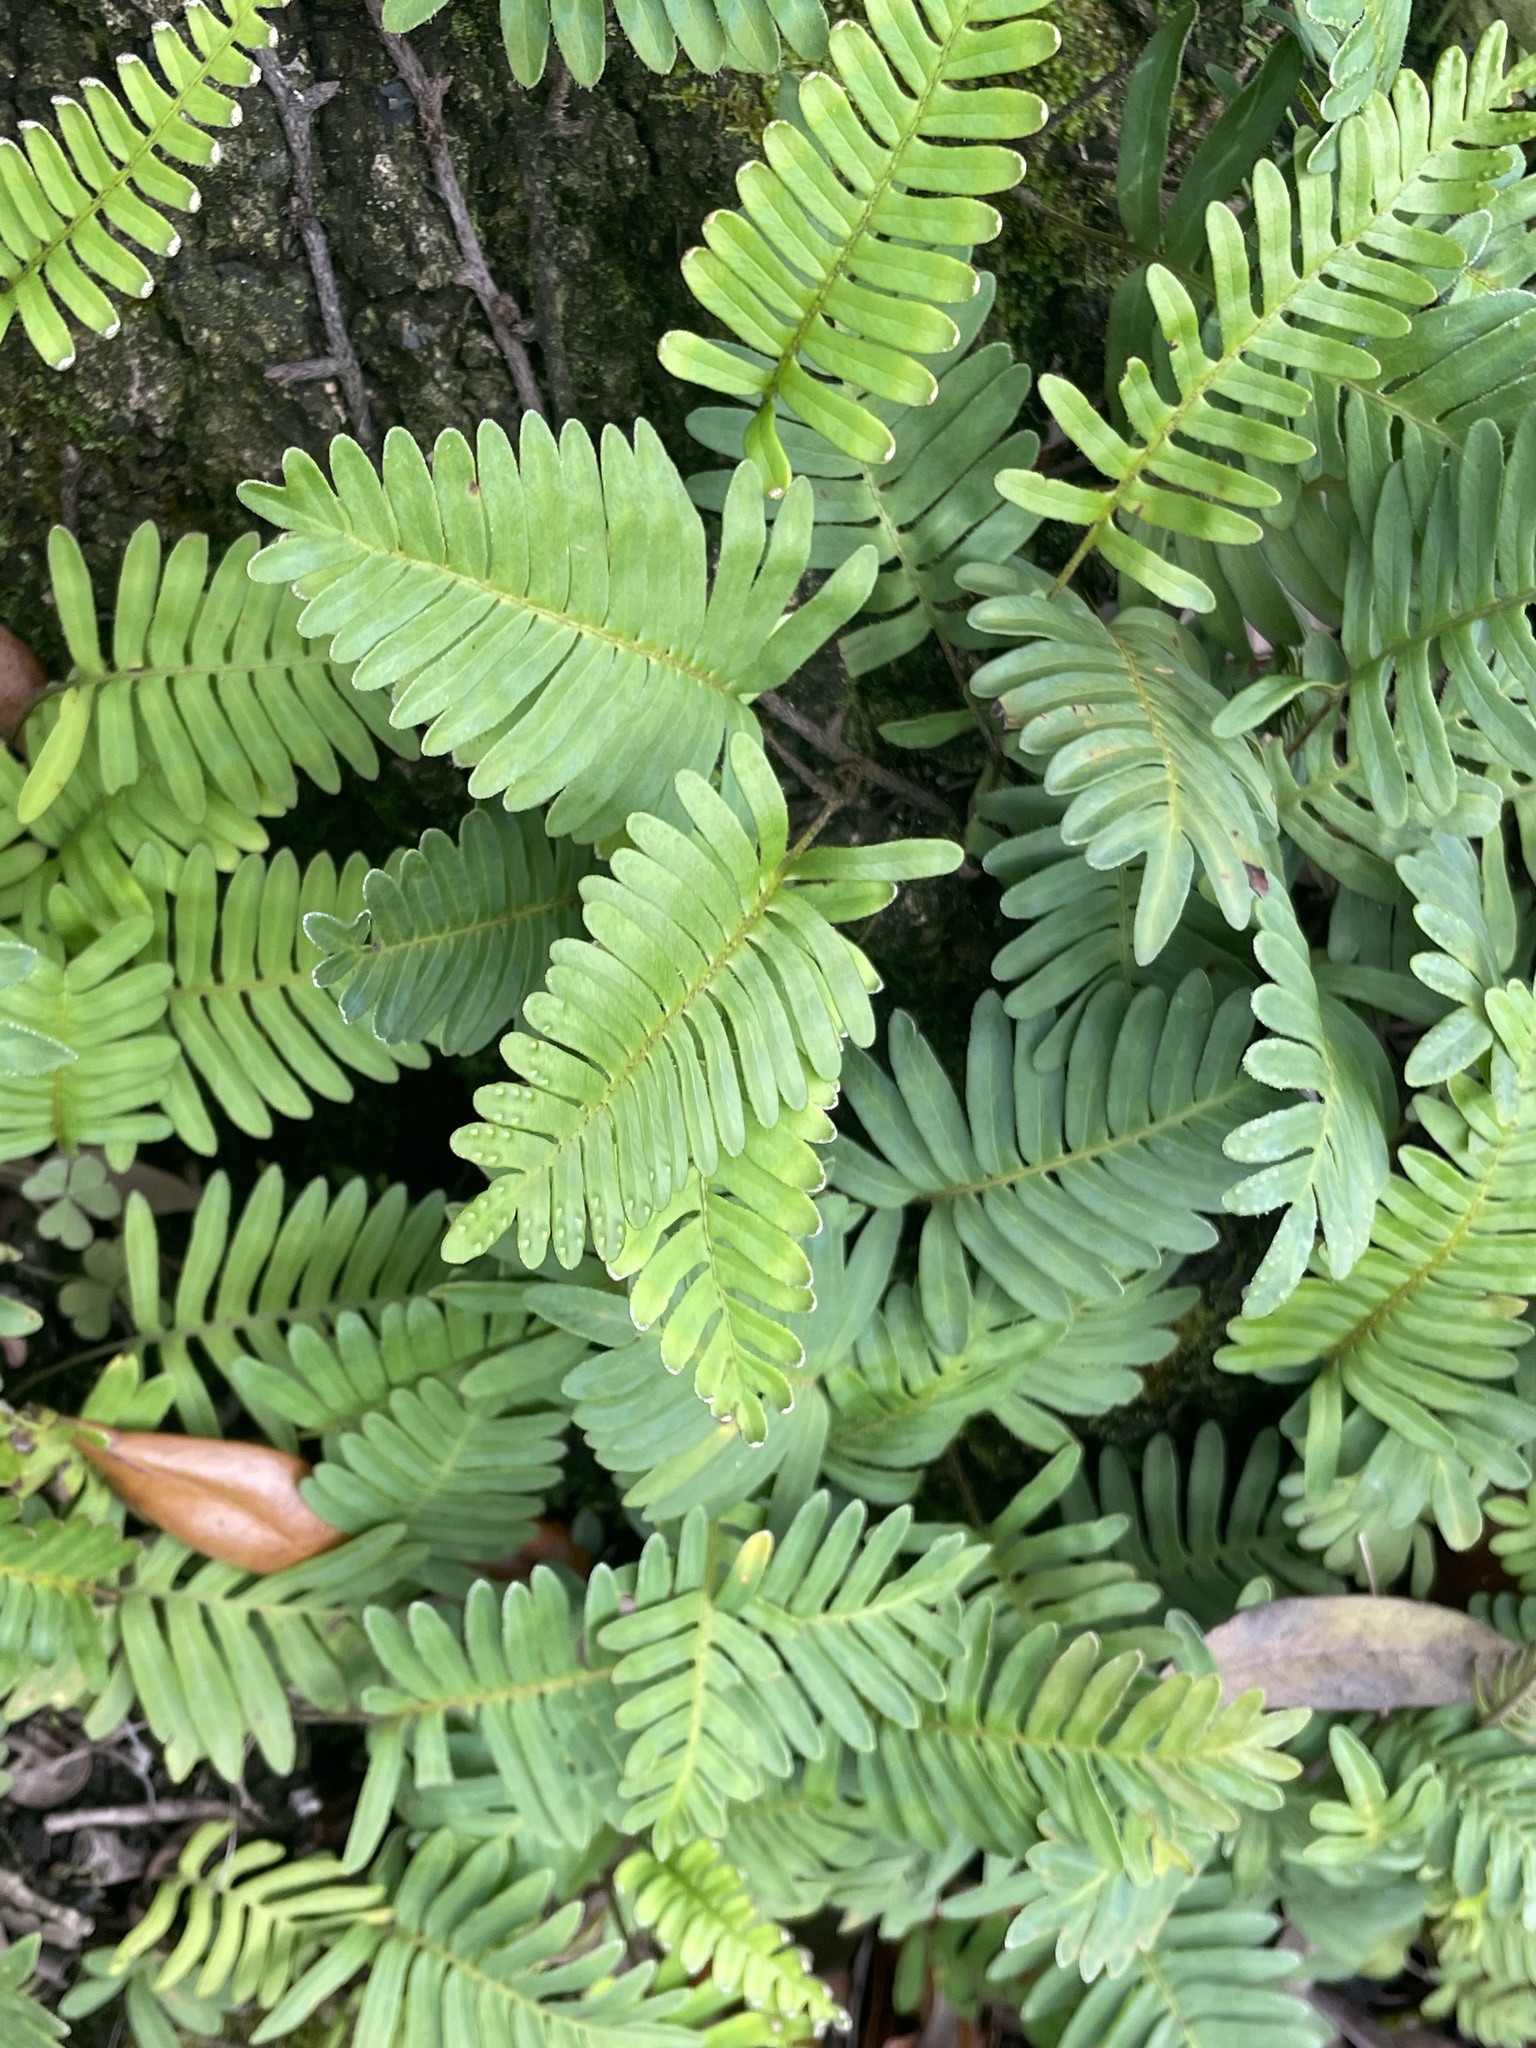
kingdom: Plantae
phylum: Tracheophyta
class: Polypodiopsida
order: Polypodiales
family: Polypodiaceae
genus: Pleopeltis
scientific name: Pleopeltis michauxiana
